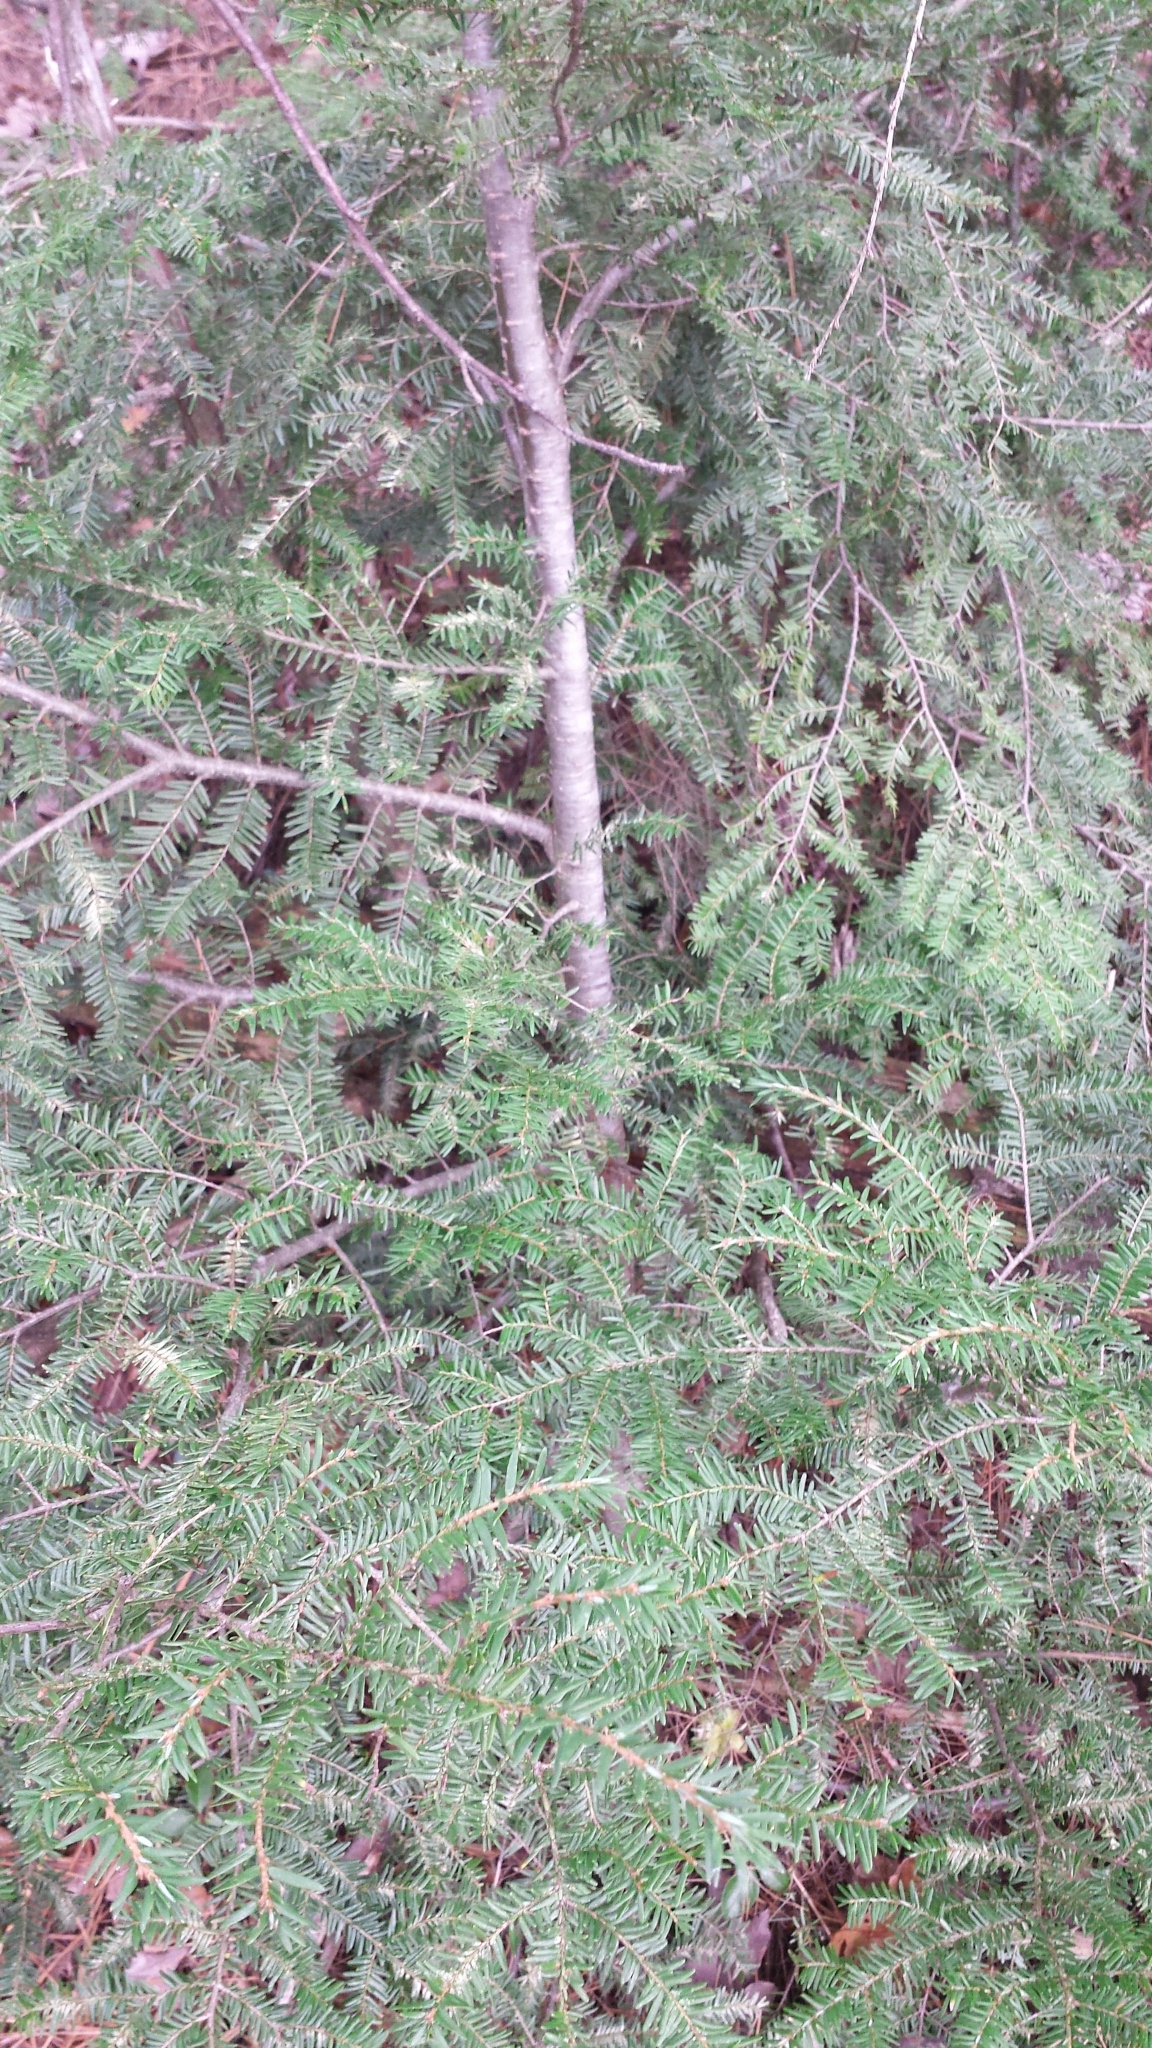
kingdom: Plantae
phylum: Tracheophyta
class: Pinopsida
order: Pinales
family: Pinaceae
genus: Tsuga
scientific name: Tsuga canadensis
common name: Eastern hemlock
